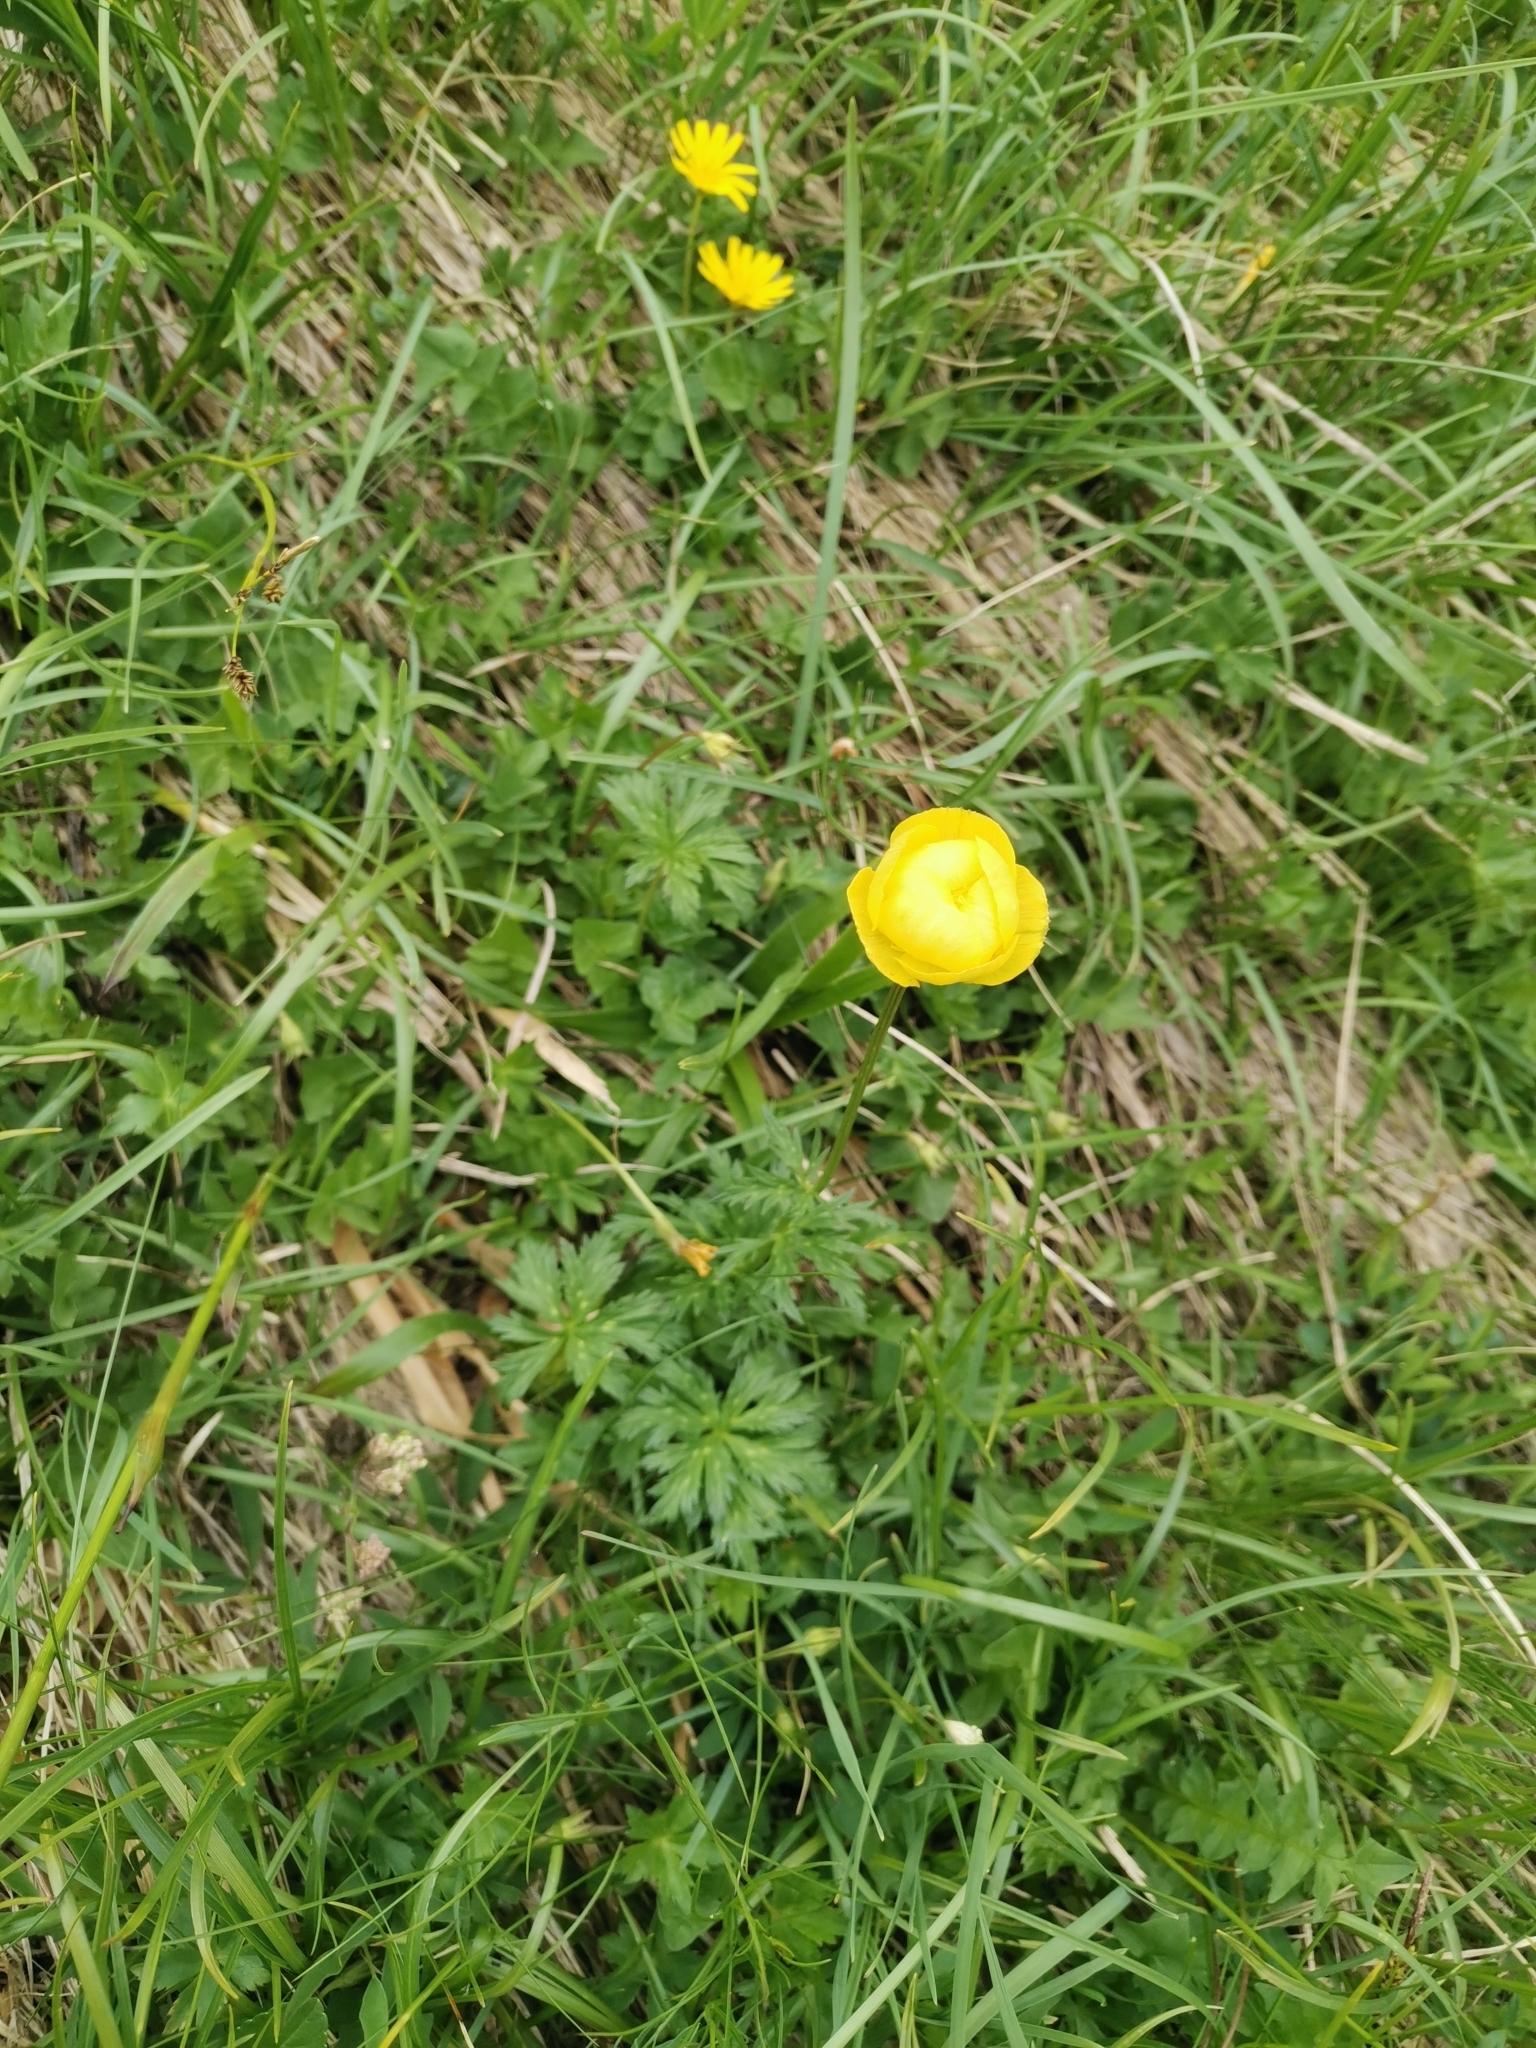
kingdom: Plantae
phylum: Tracheophyta
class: Magnoliopsida
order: Ranunculales
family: Ranunculaceae
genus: Trollius
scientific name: Trollius europaeus
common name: European globeflower
